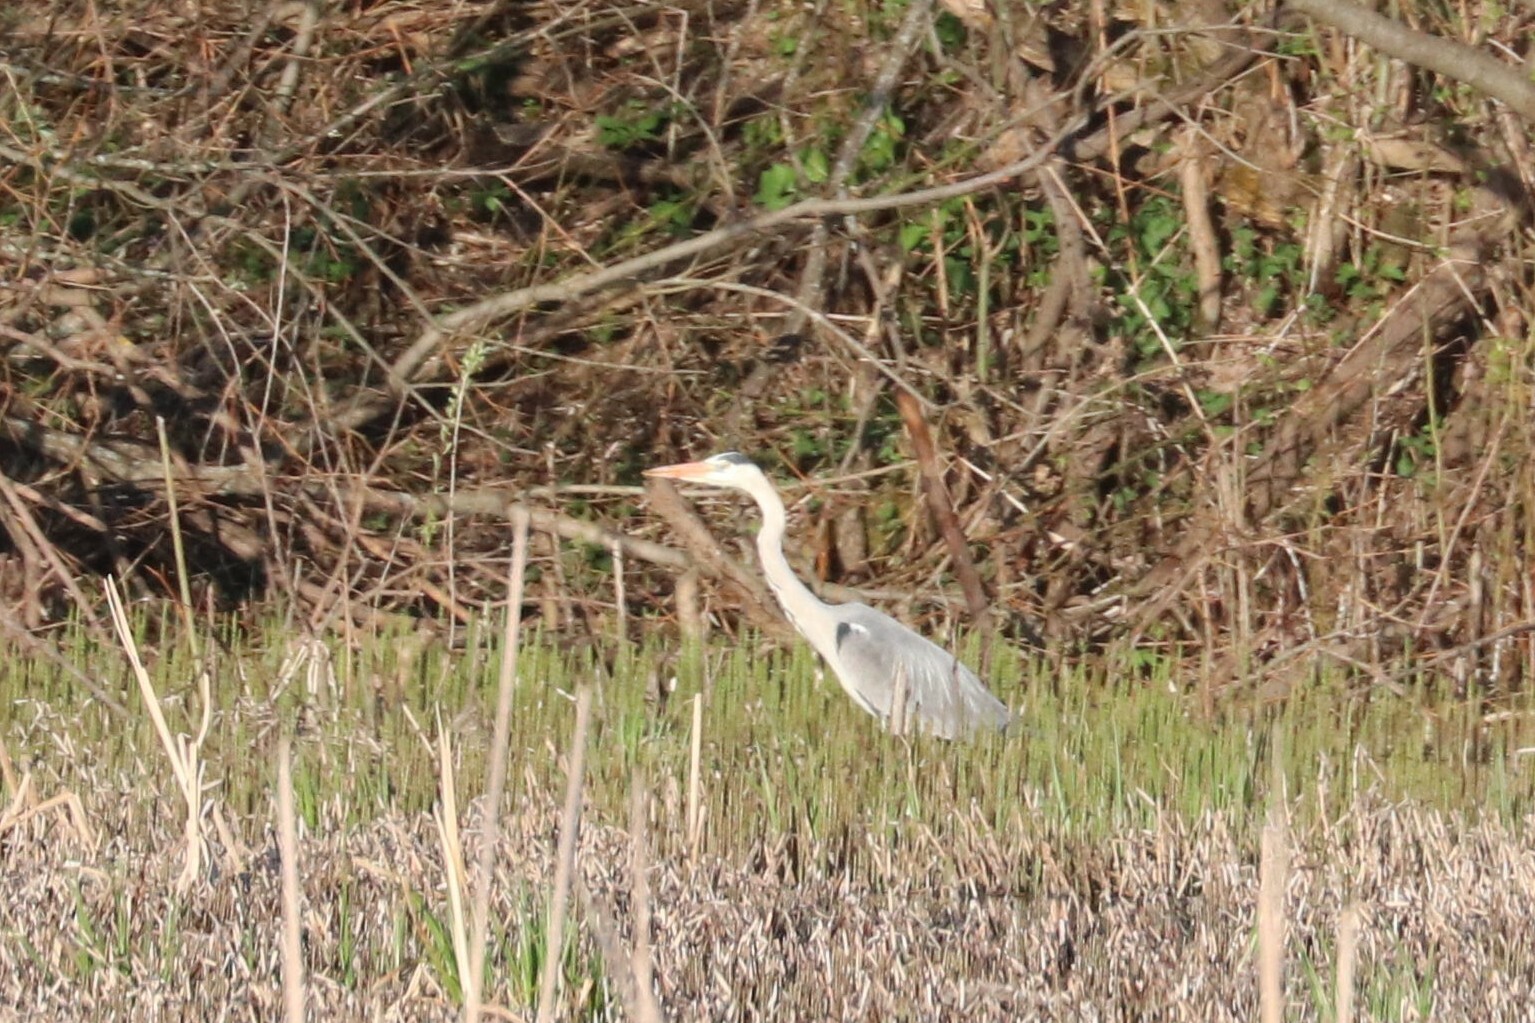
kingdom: Animalia
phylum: Chordata
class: Aves
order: Pelecaniformes
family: Ardeidae
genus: Ardea
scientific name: Ardea cinerea
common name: Grey heron
